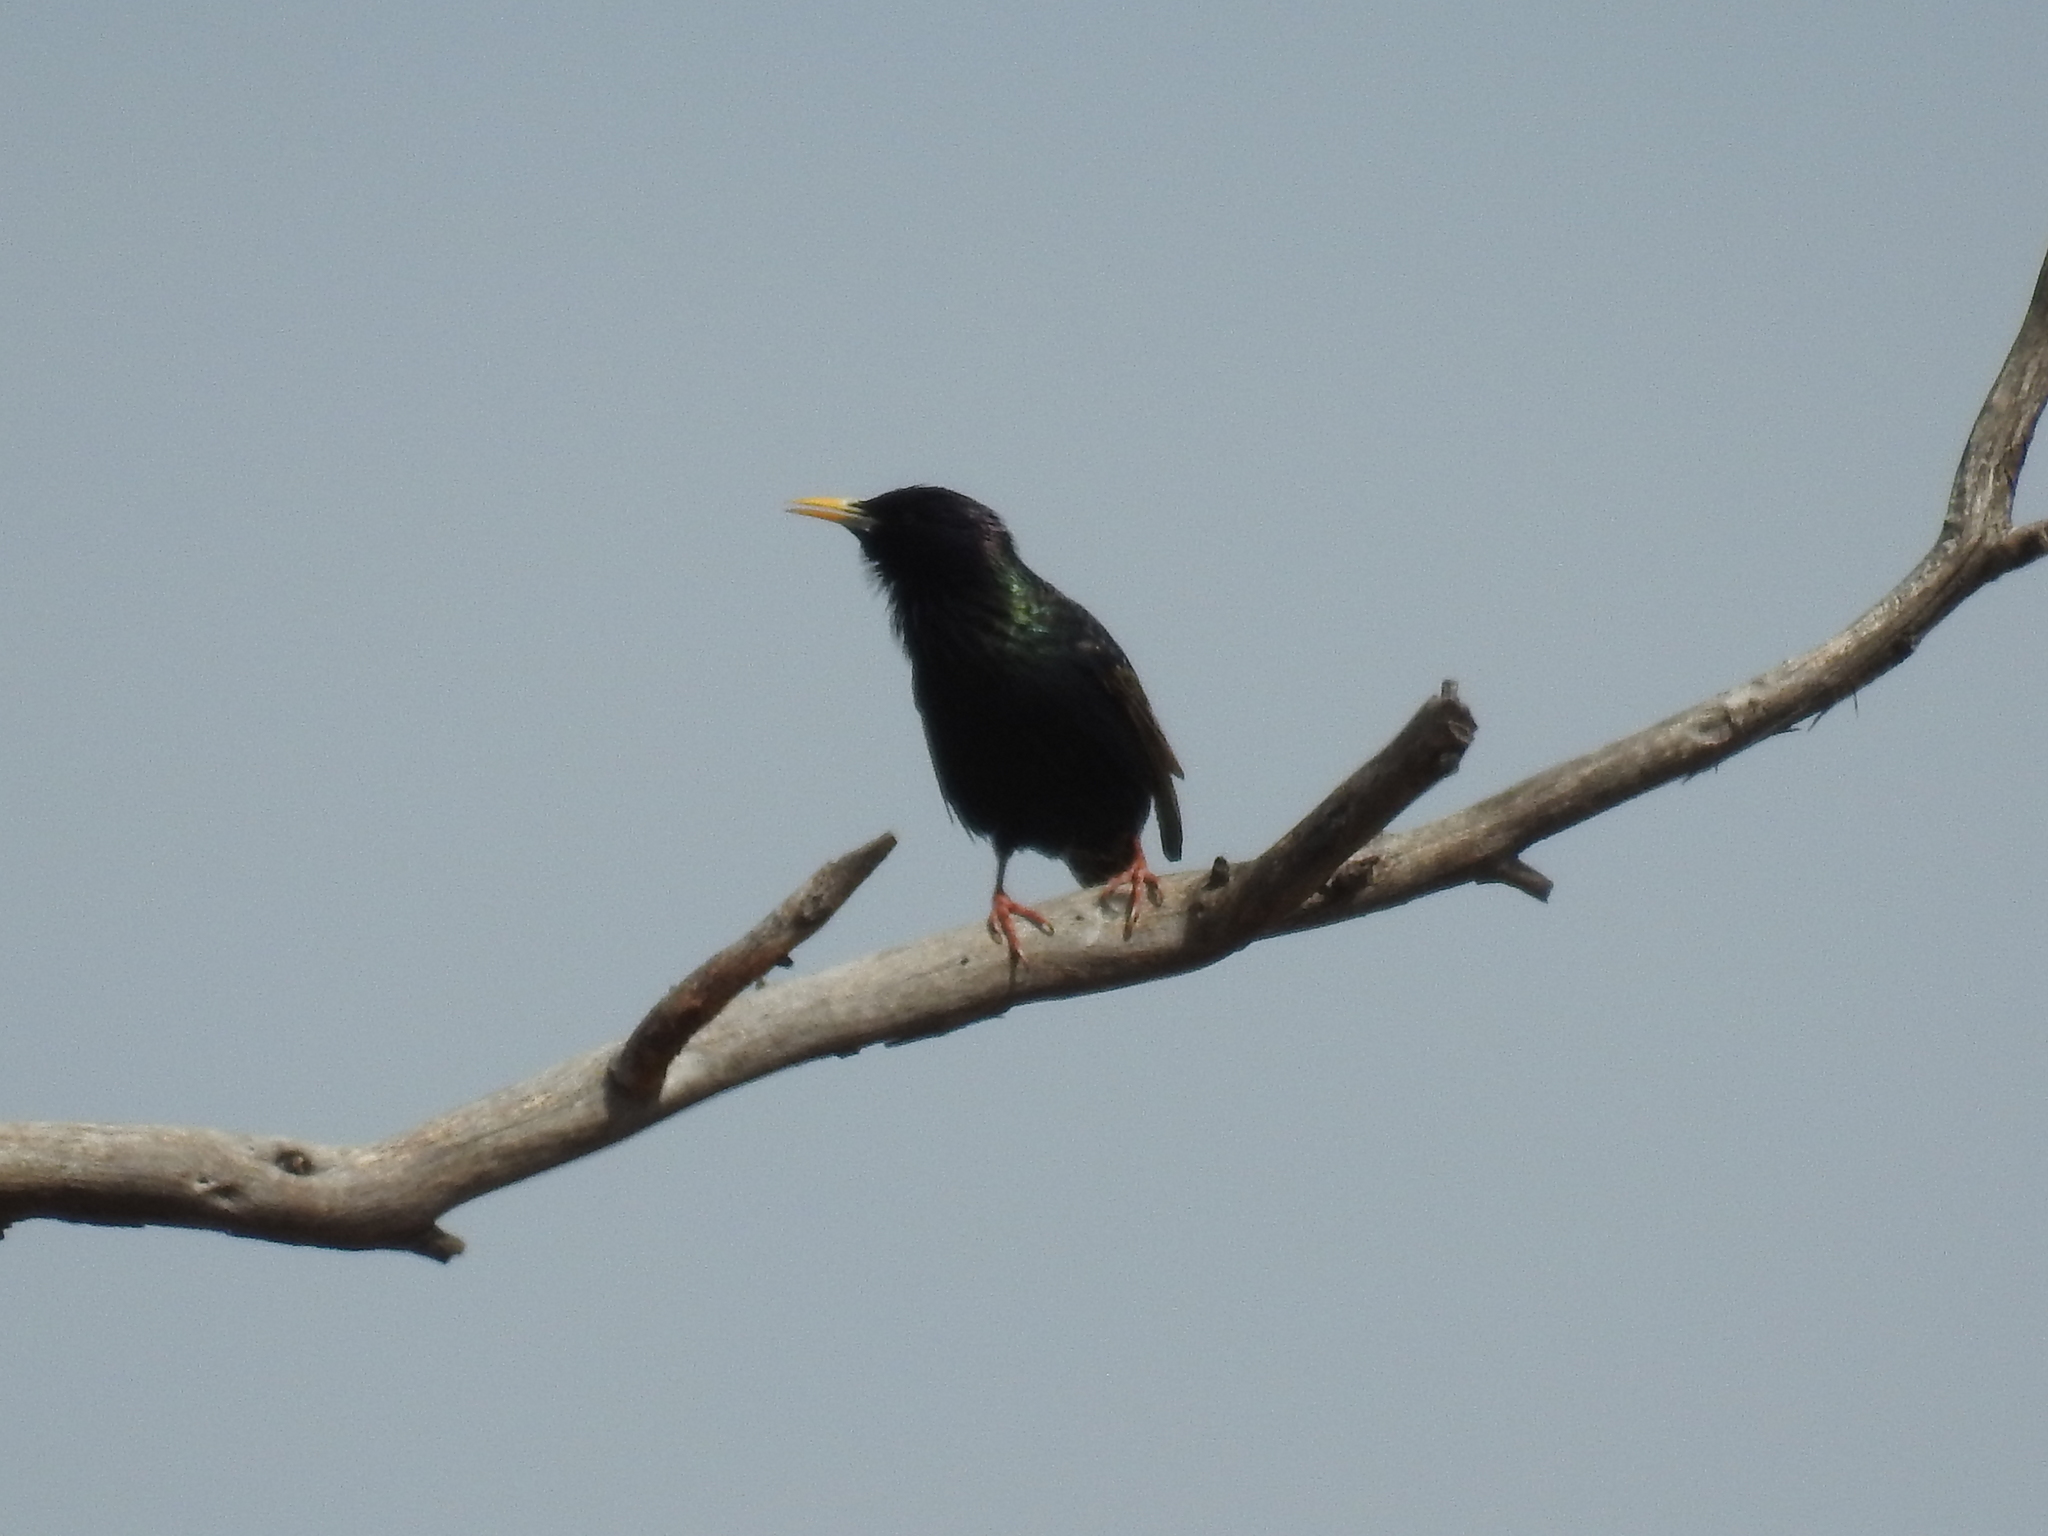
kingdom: Animalia
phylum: Chordata
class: Aves
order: Passeriformes
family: Sturnidae
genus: Sturnus
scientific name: Sturnus vulgaris
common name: Common starling
